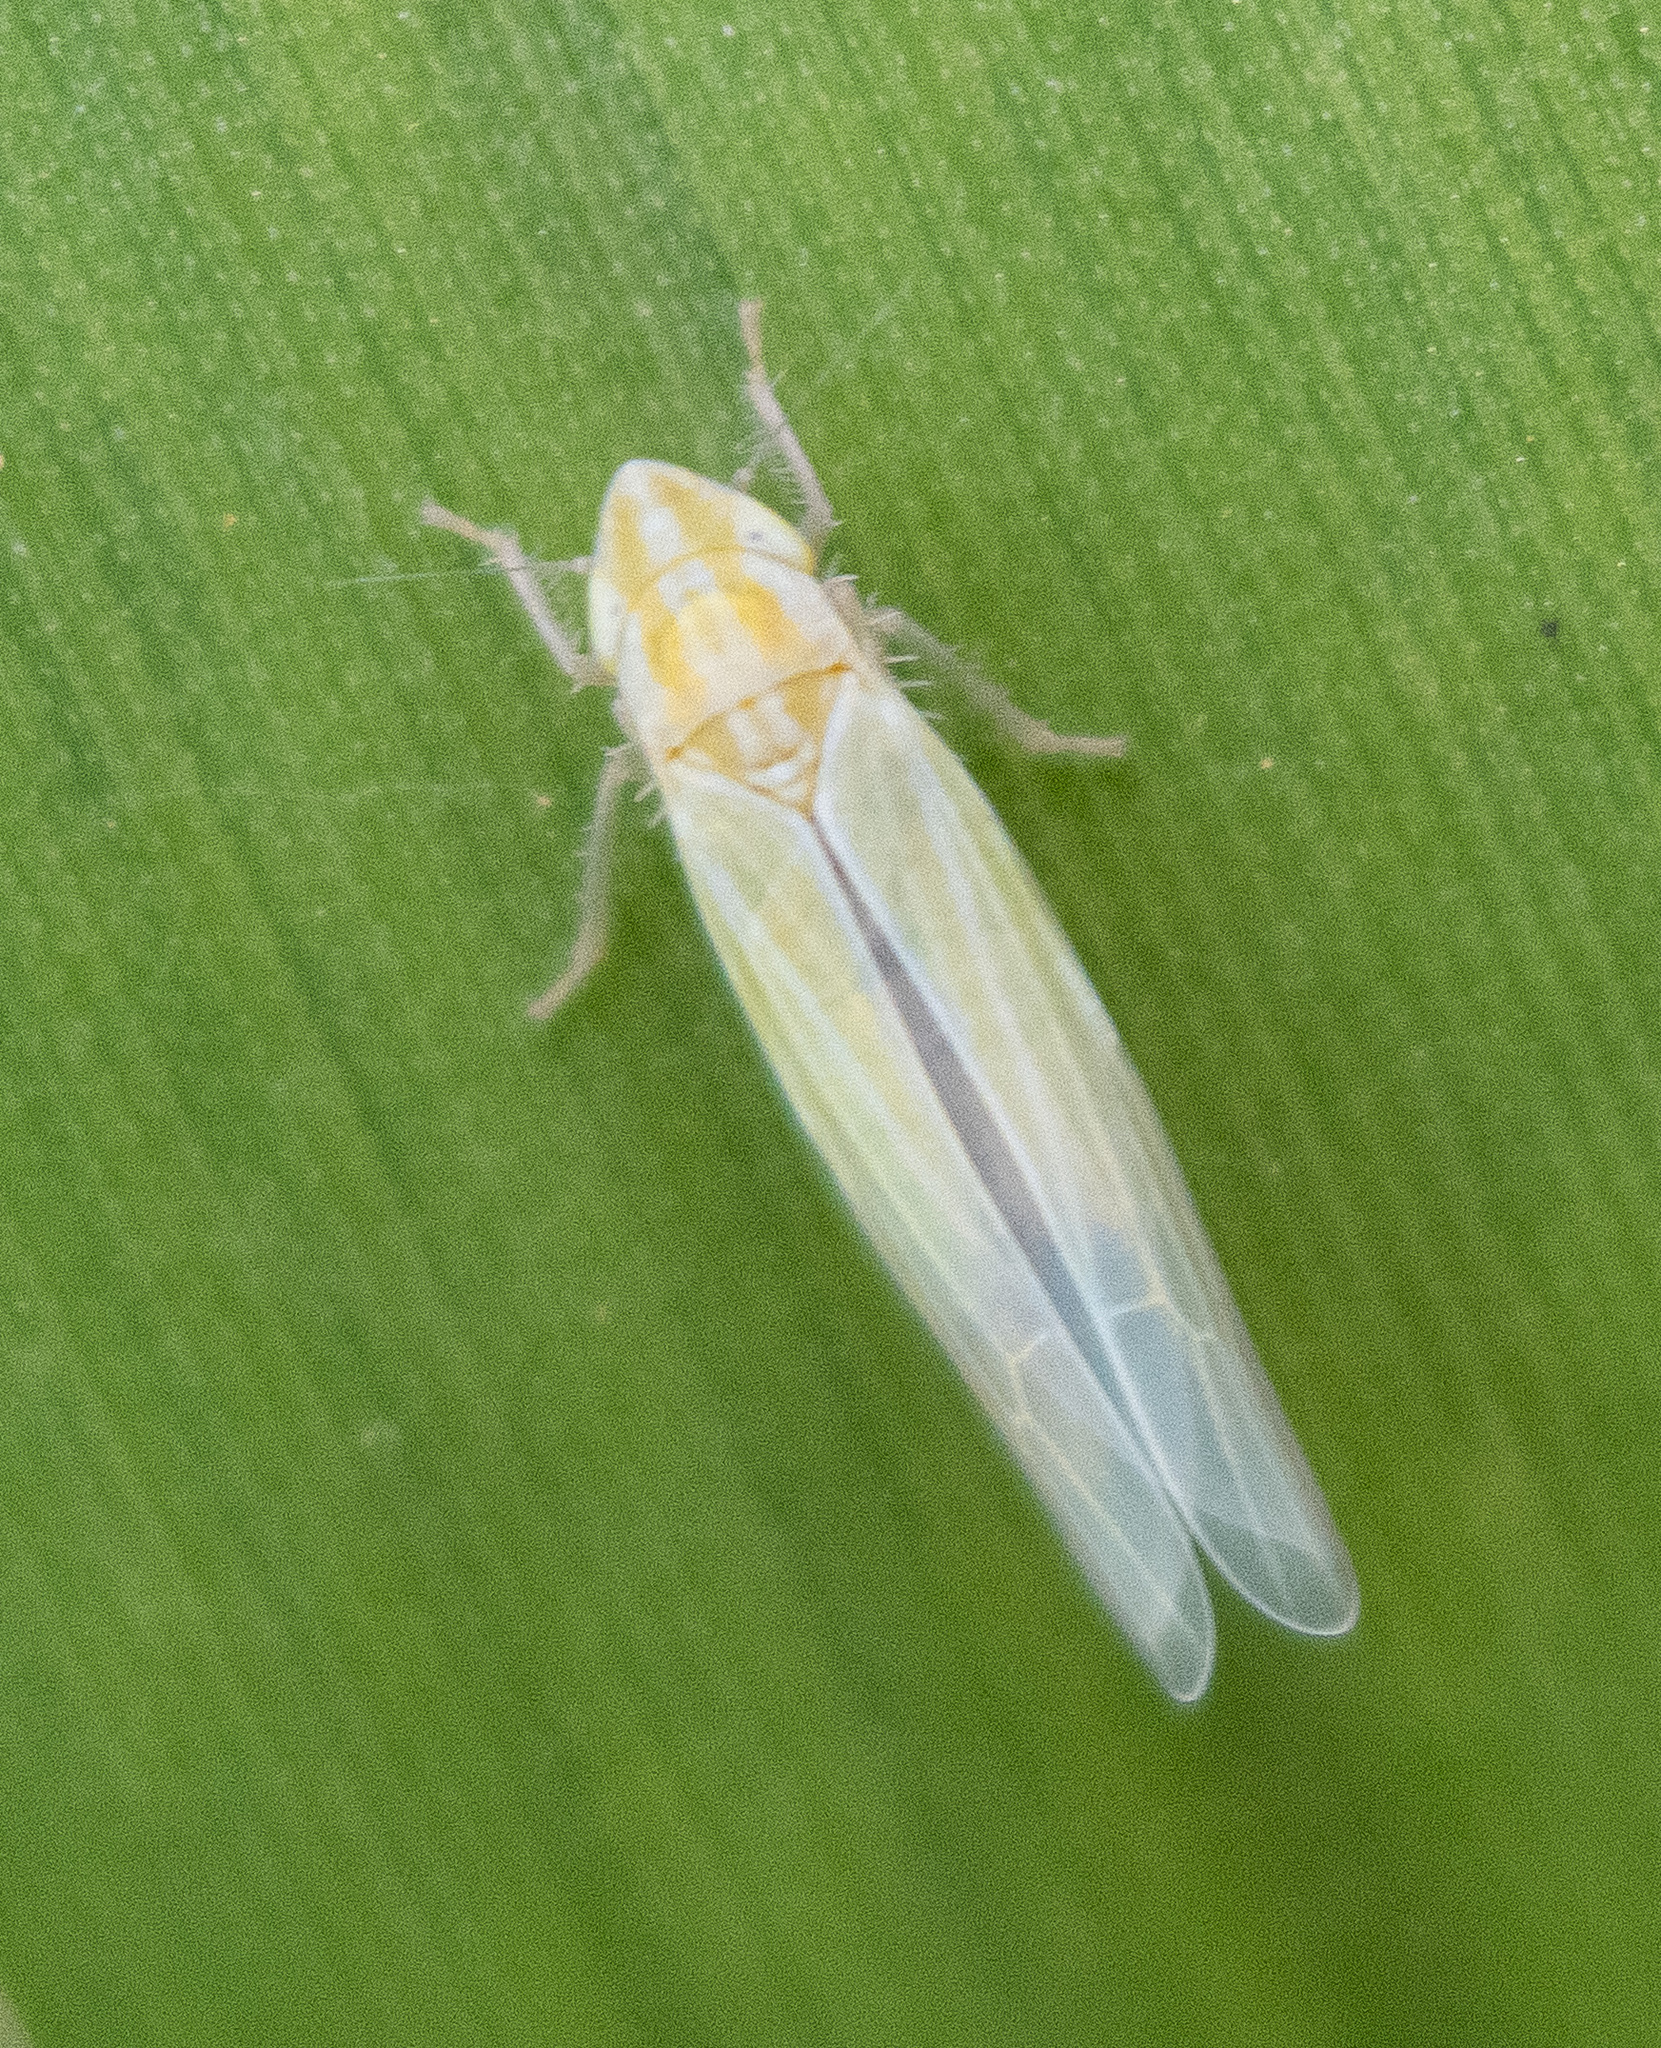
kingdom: Animalia
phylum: Arthropoda
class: Insecta
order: Hemiptera
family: Cicadellidae
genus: Dikraneura
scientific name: Dikraneura angustata
